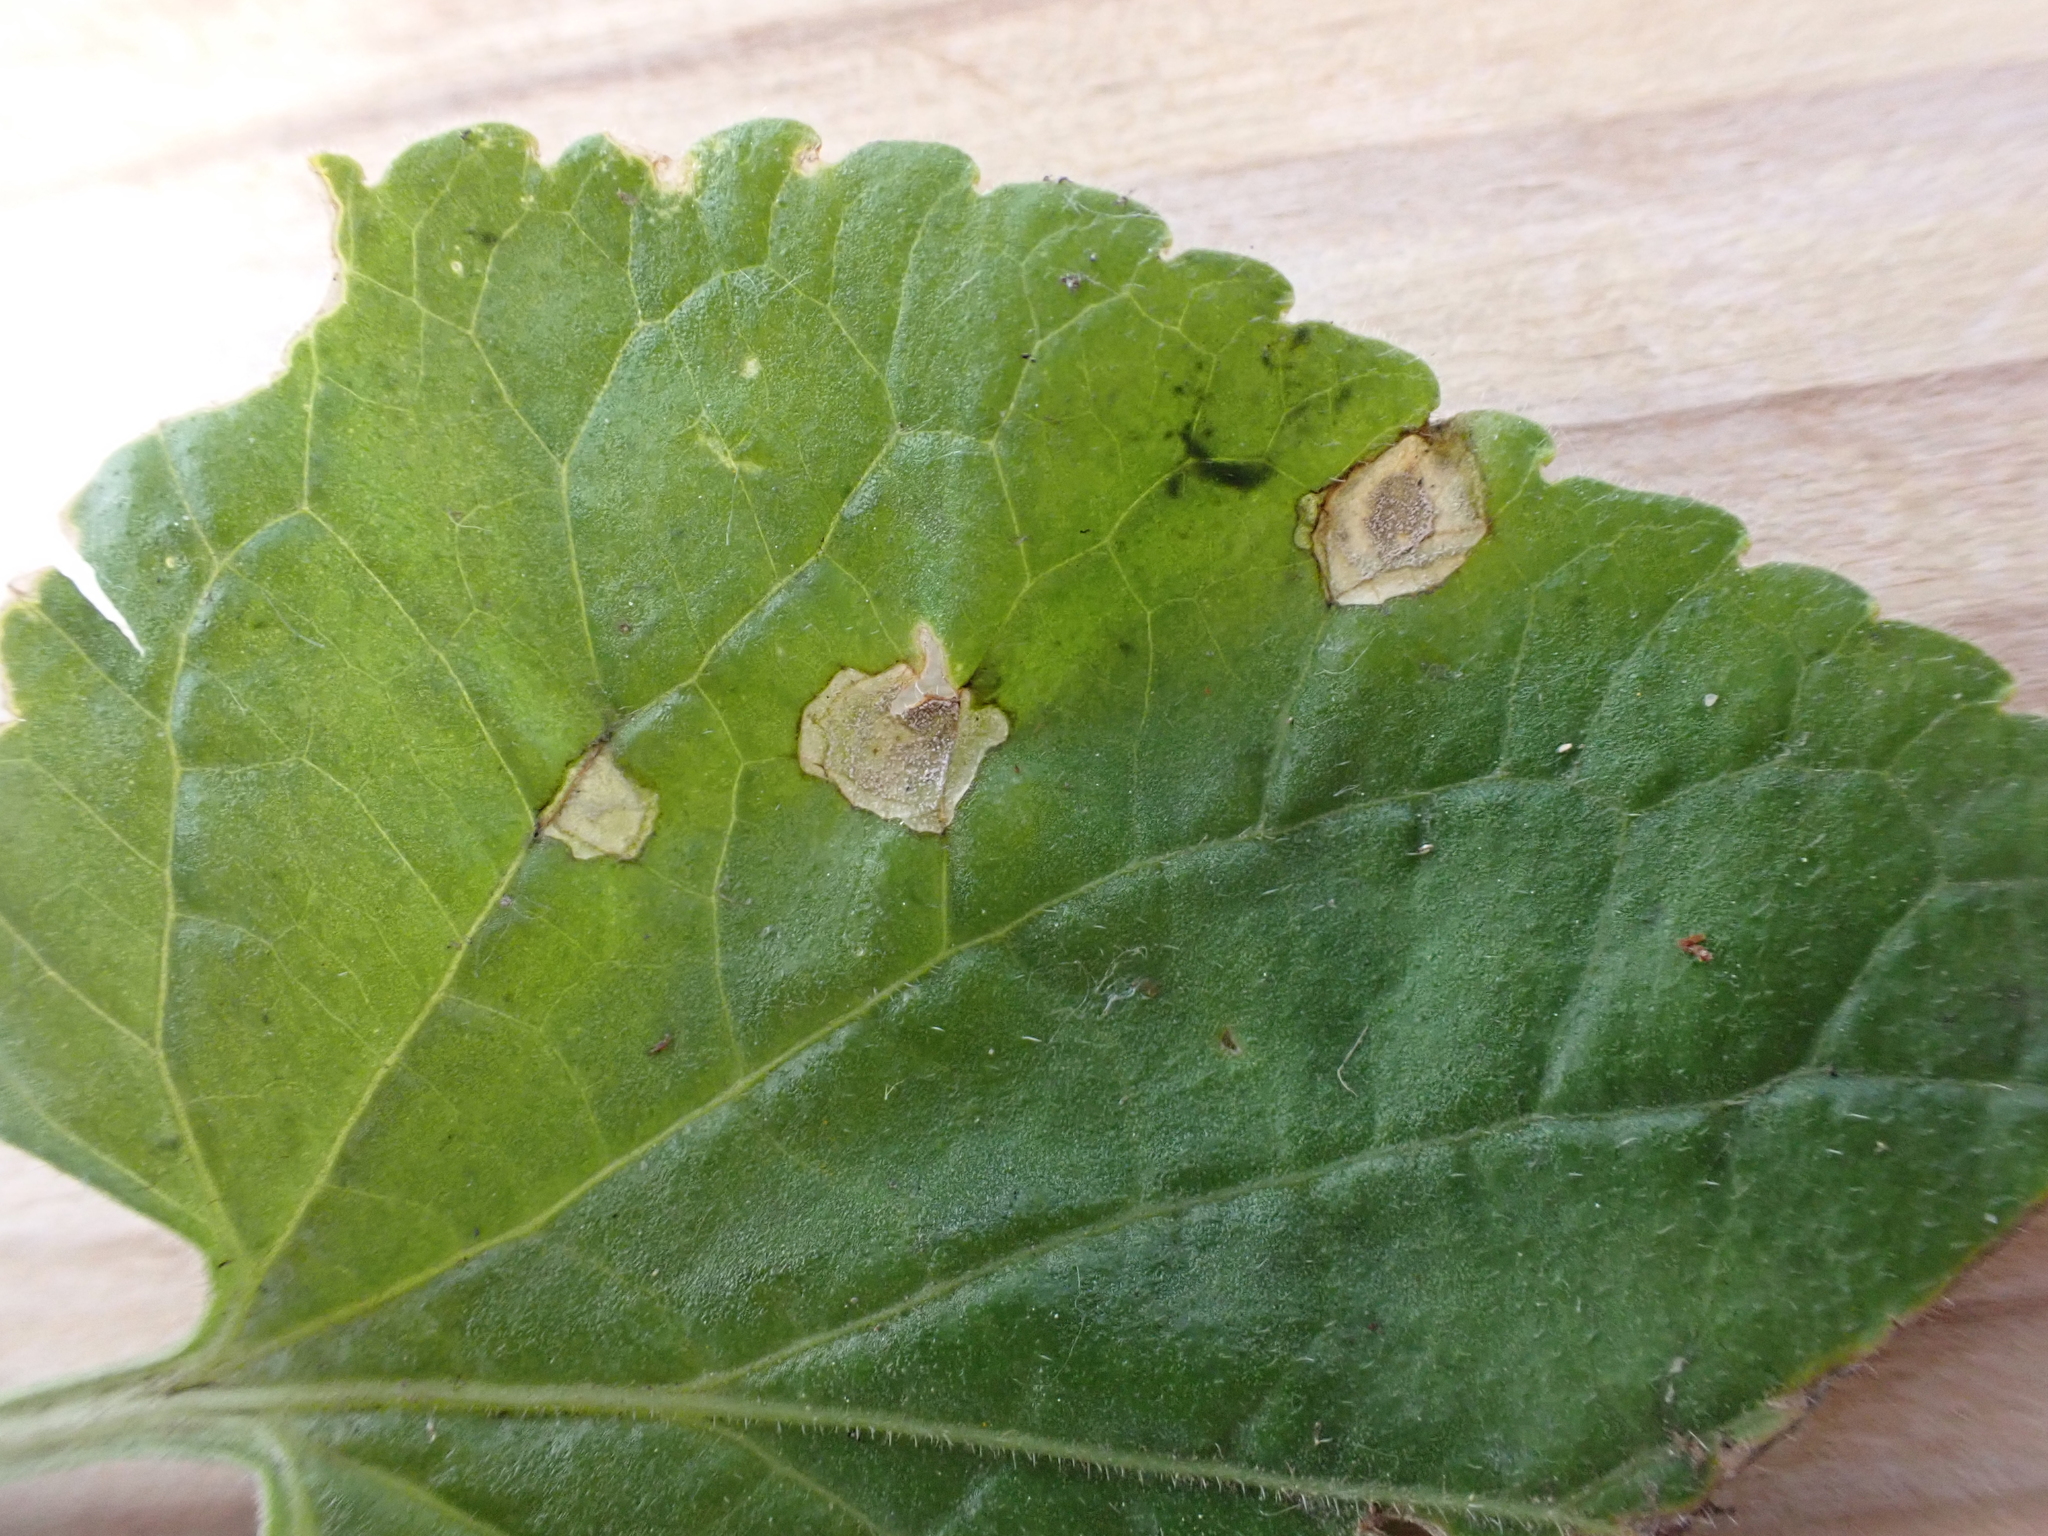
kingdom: Fungi
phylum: Ascomycota
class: Dothideomycetes
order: Mycosphaerellales
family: Mycosphaerellaceae
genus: Cercospora
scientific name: Cercospora violae
